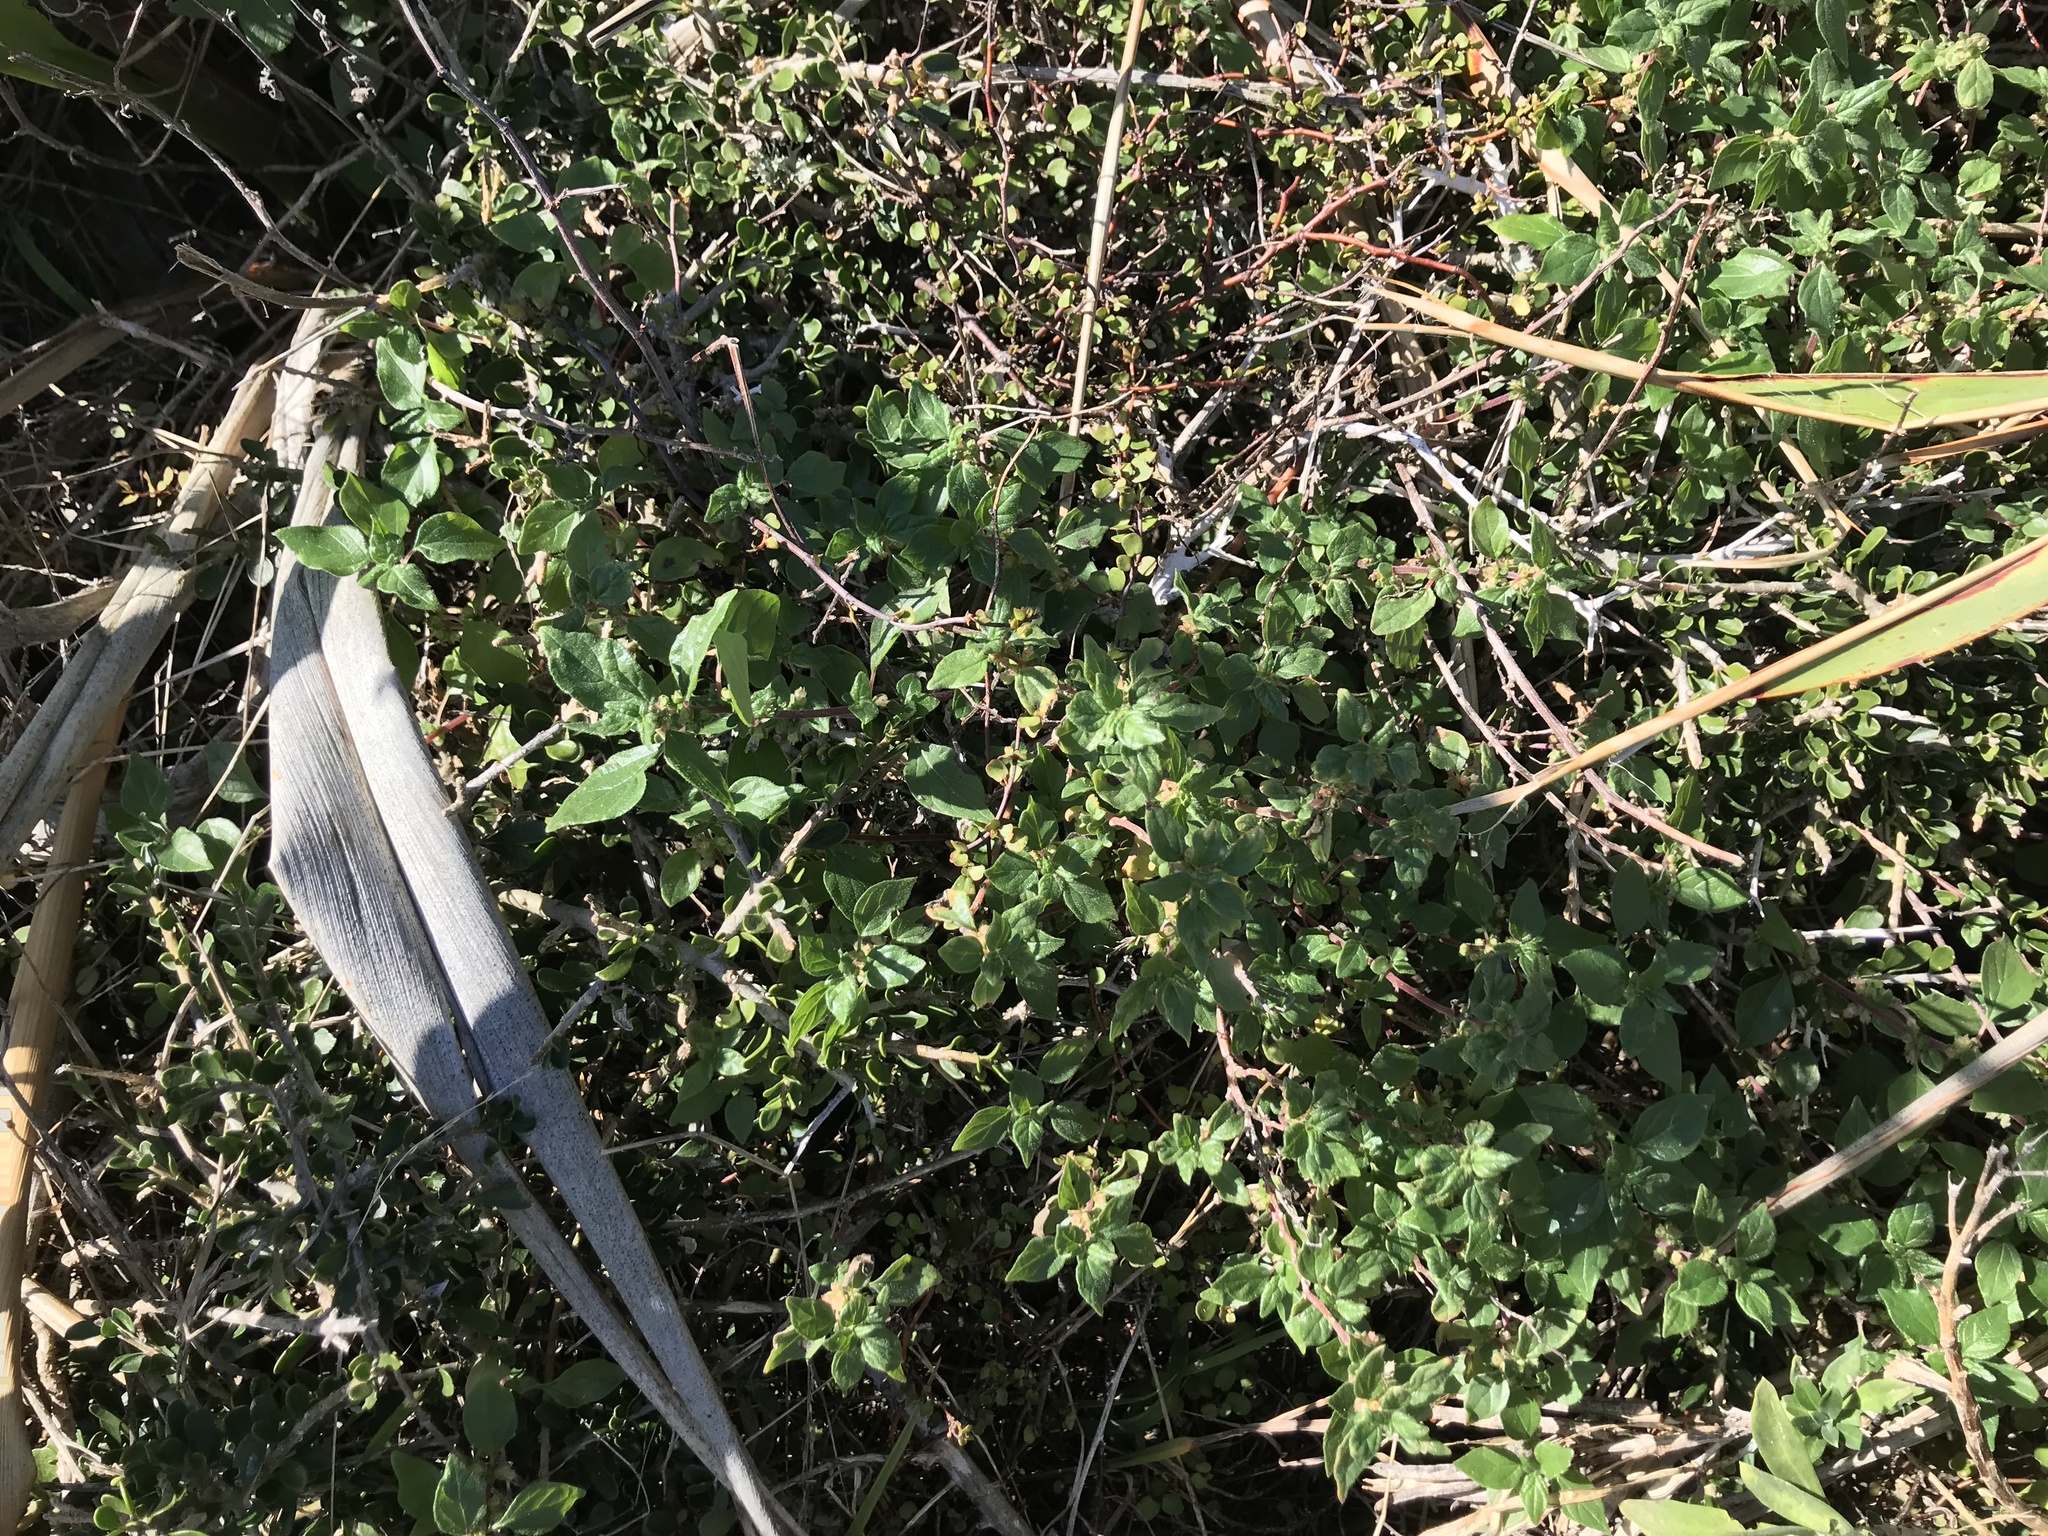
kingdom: Plantae
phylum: Tracheophyta
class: Magnoliopsida
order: Rosales
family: Urticaceae
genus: Parietaria
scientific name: Parietaria judaica
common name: Pellitory-of-the-wall
